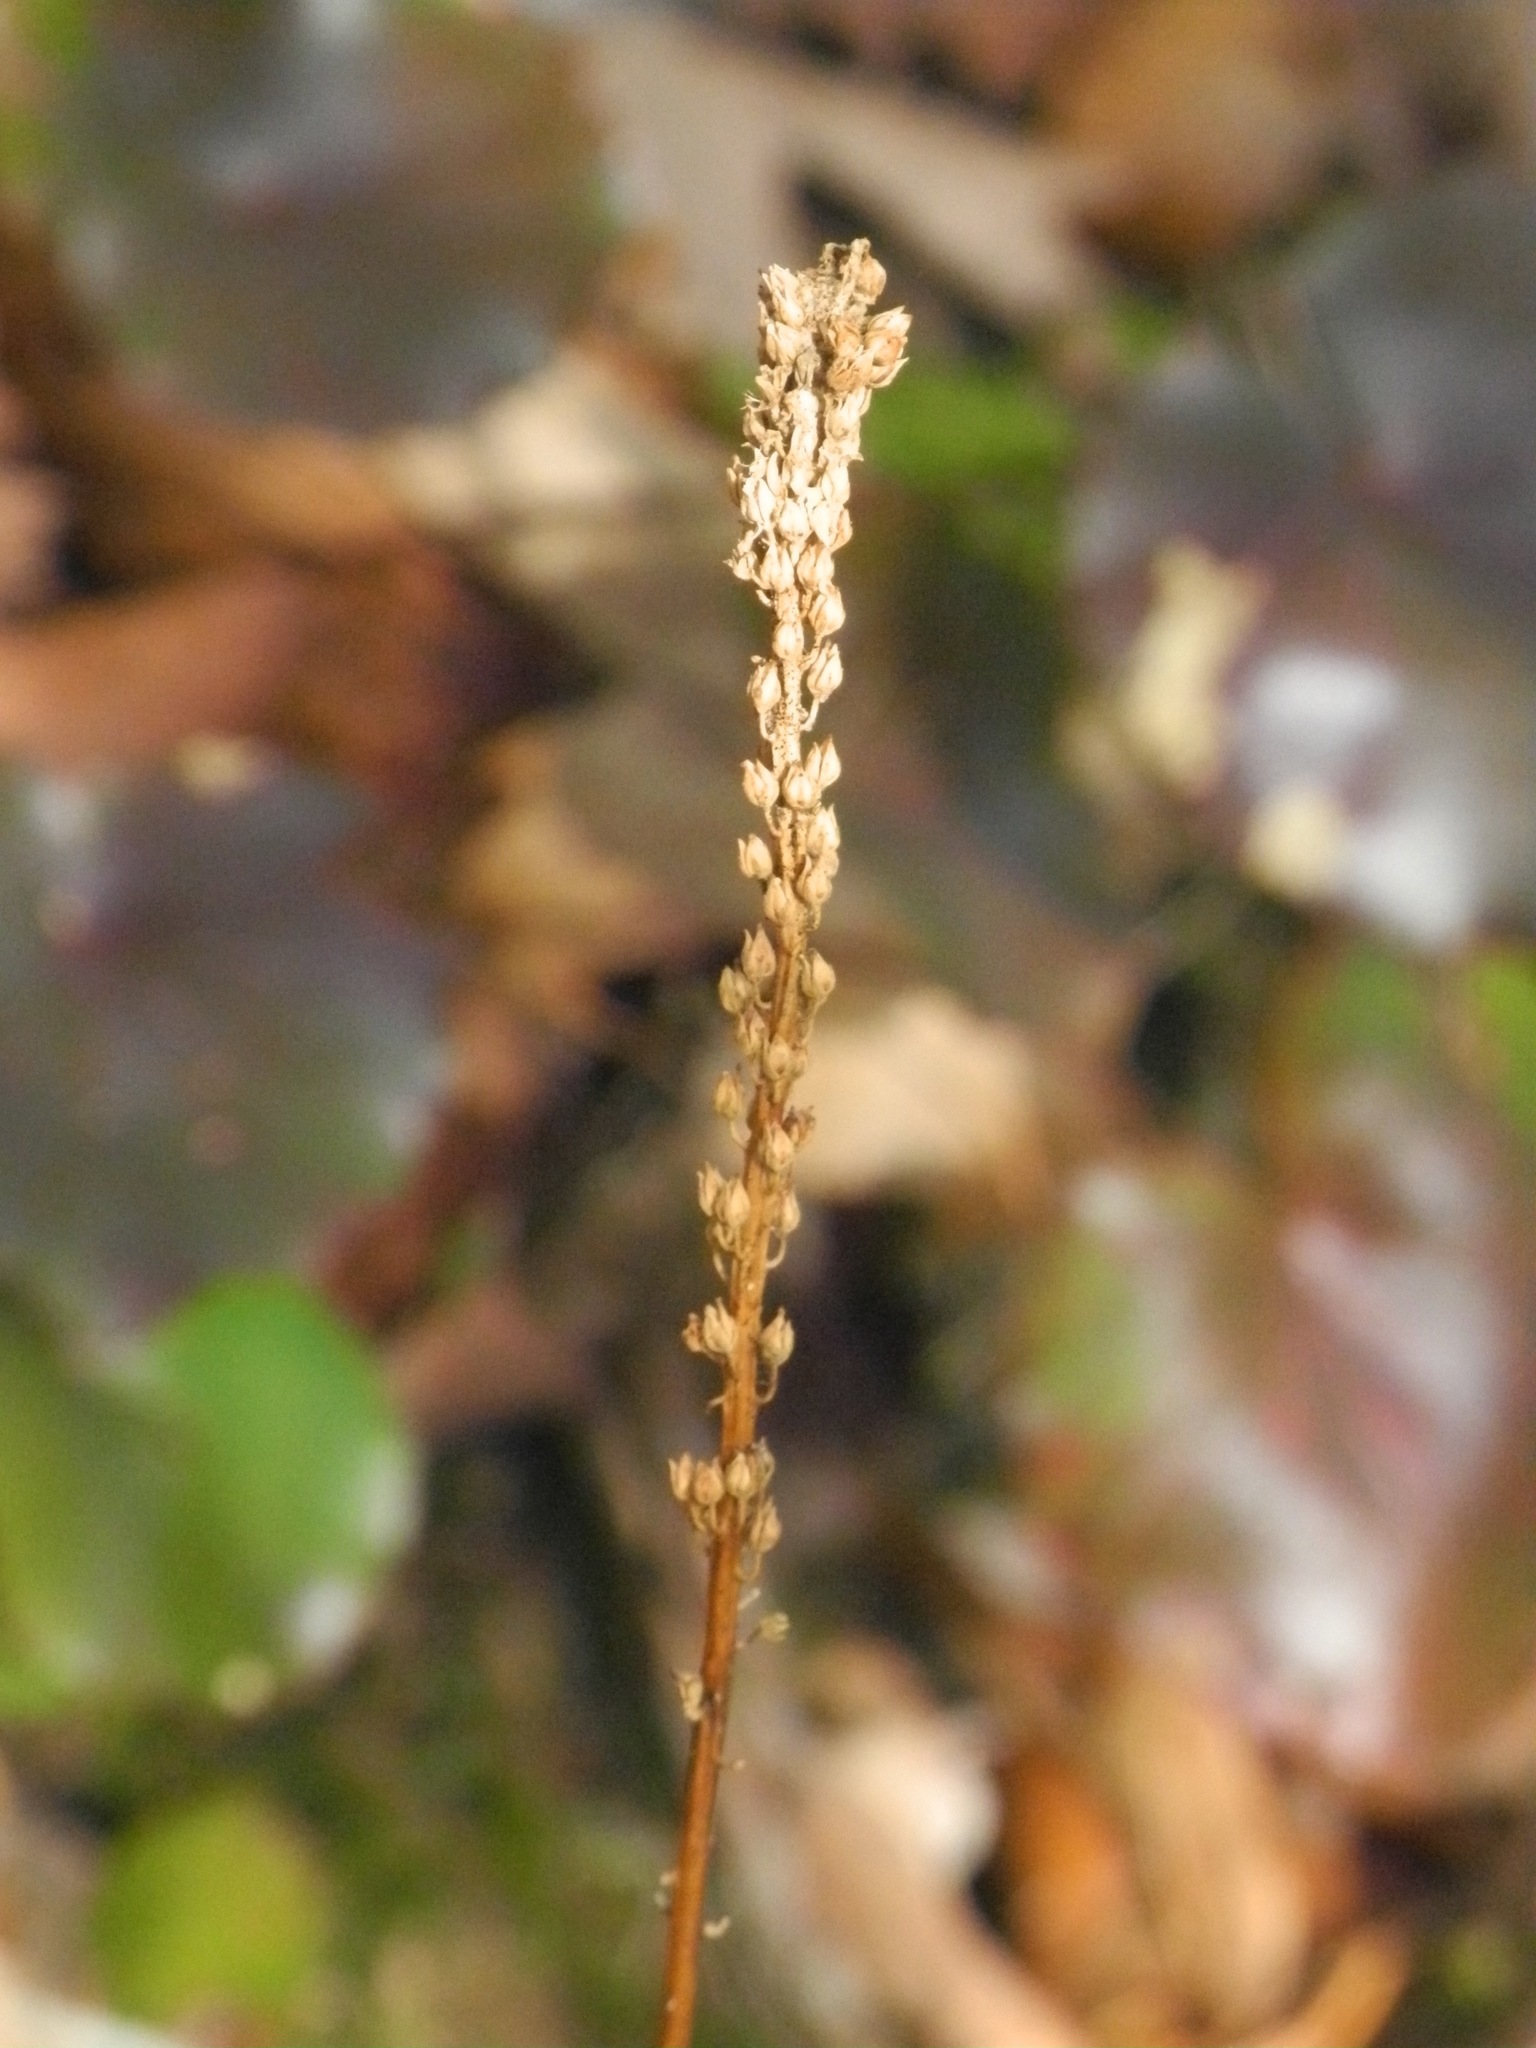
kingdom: Plantae
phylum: Tracheophyta
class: Magnoliopsida
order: Ericales
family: Diapensiaceae
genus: Galax
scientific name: Galax urceolata
